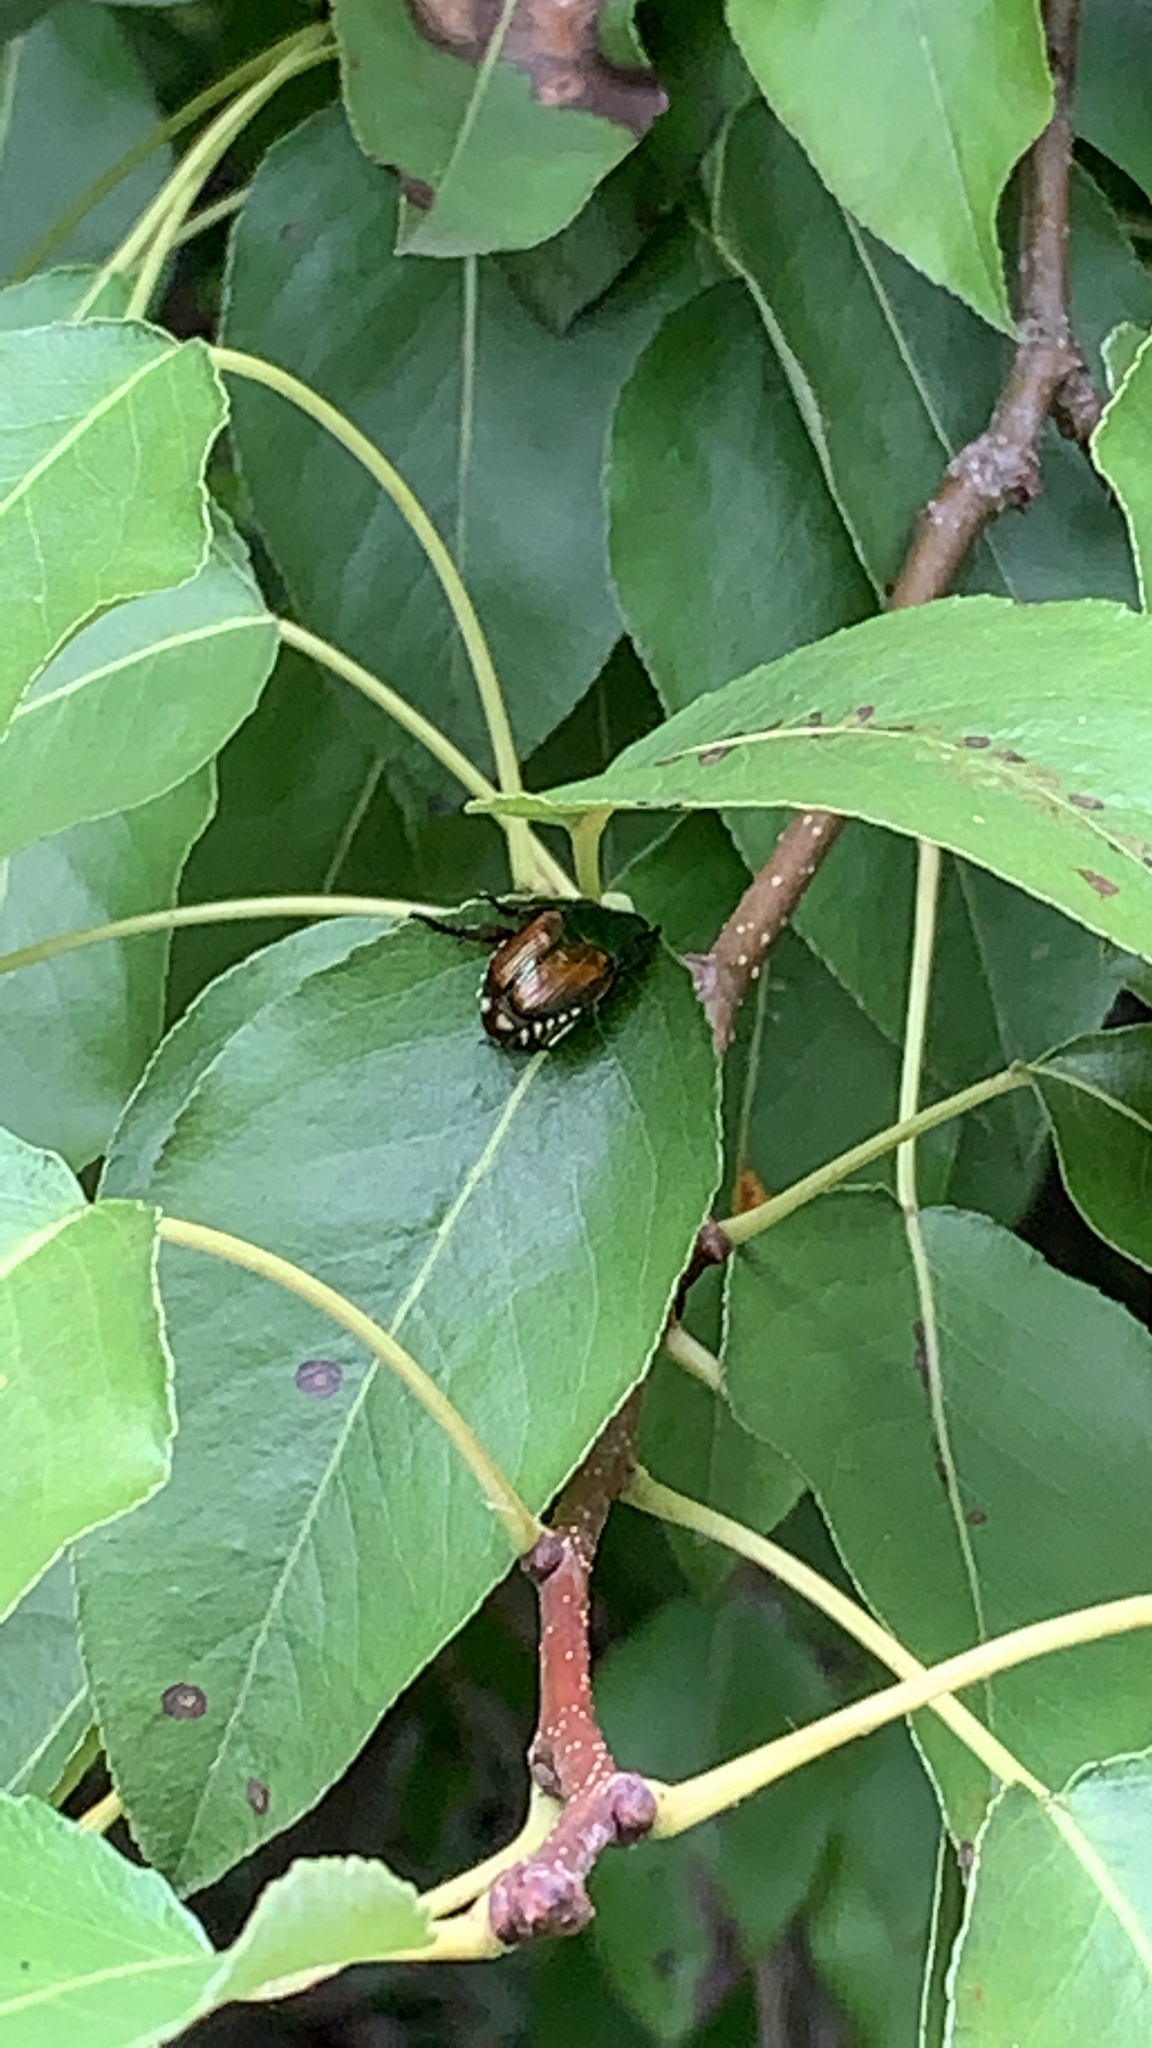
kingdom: Animalia
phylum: Arthropoda
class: Insecta
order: Coleoptera
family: Scarabaeidae
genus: Popillia
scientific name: Popillia japonica
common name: Japanese beetle
